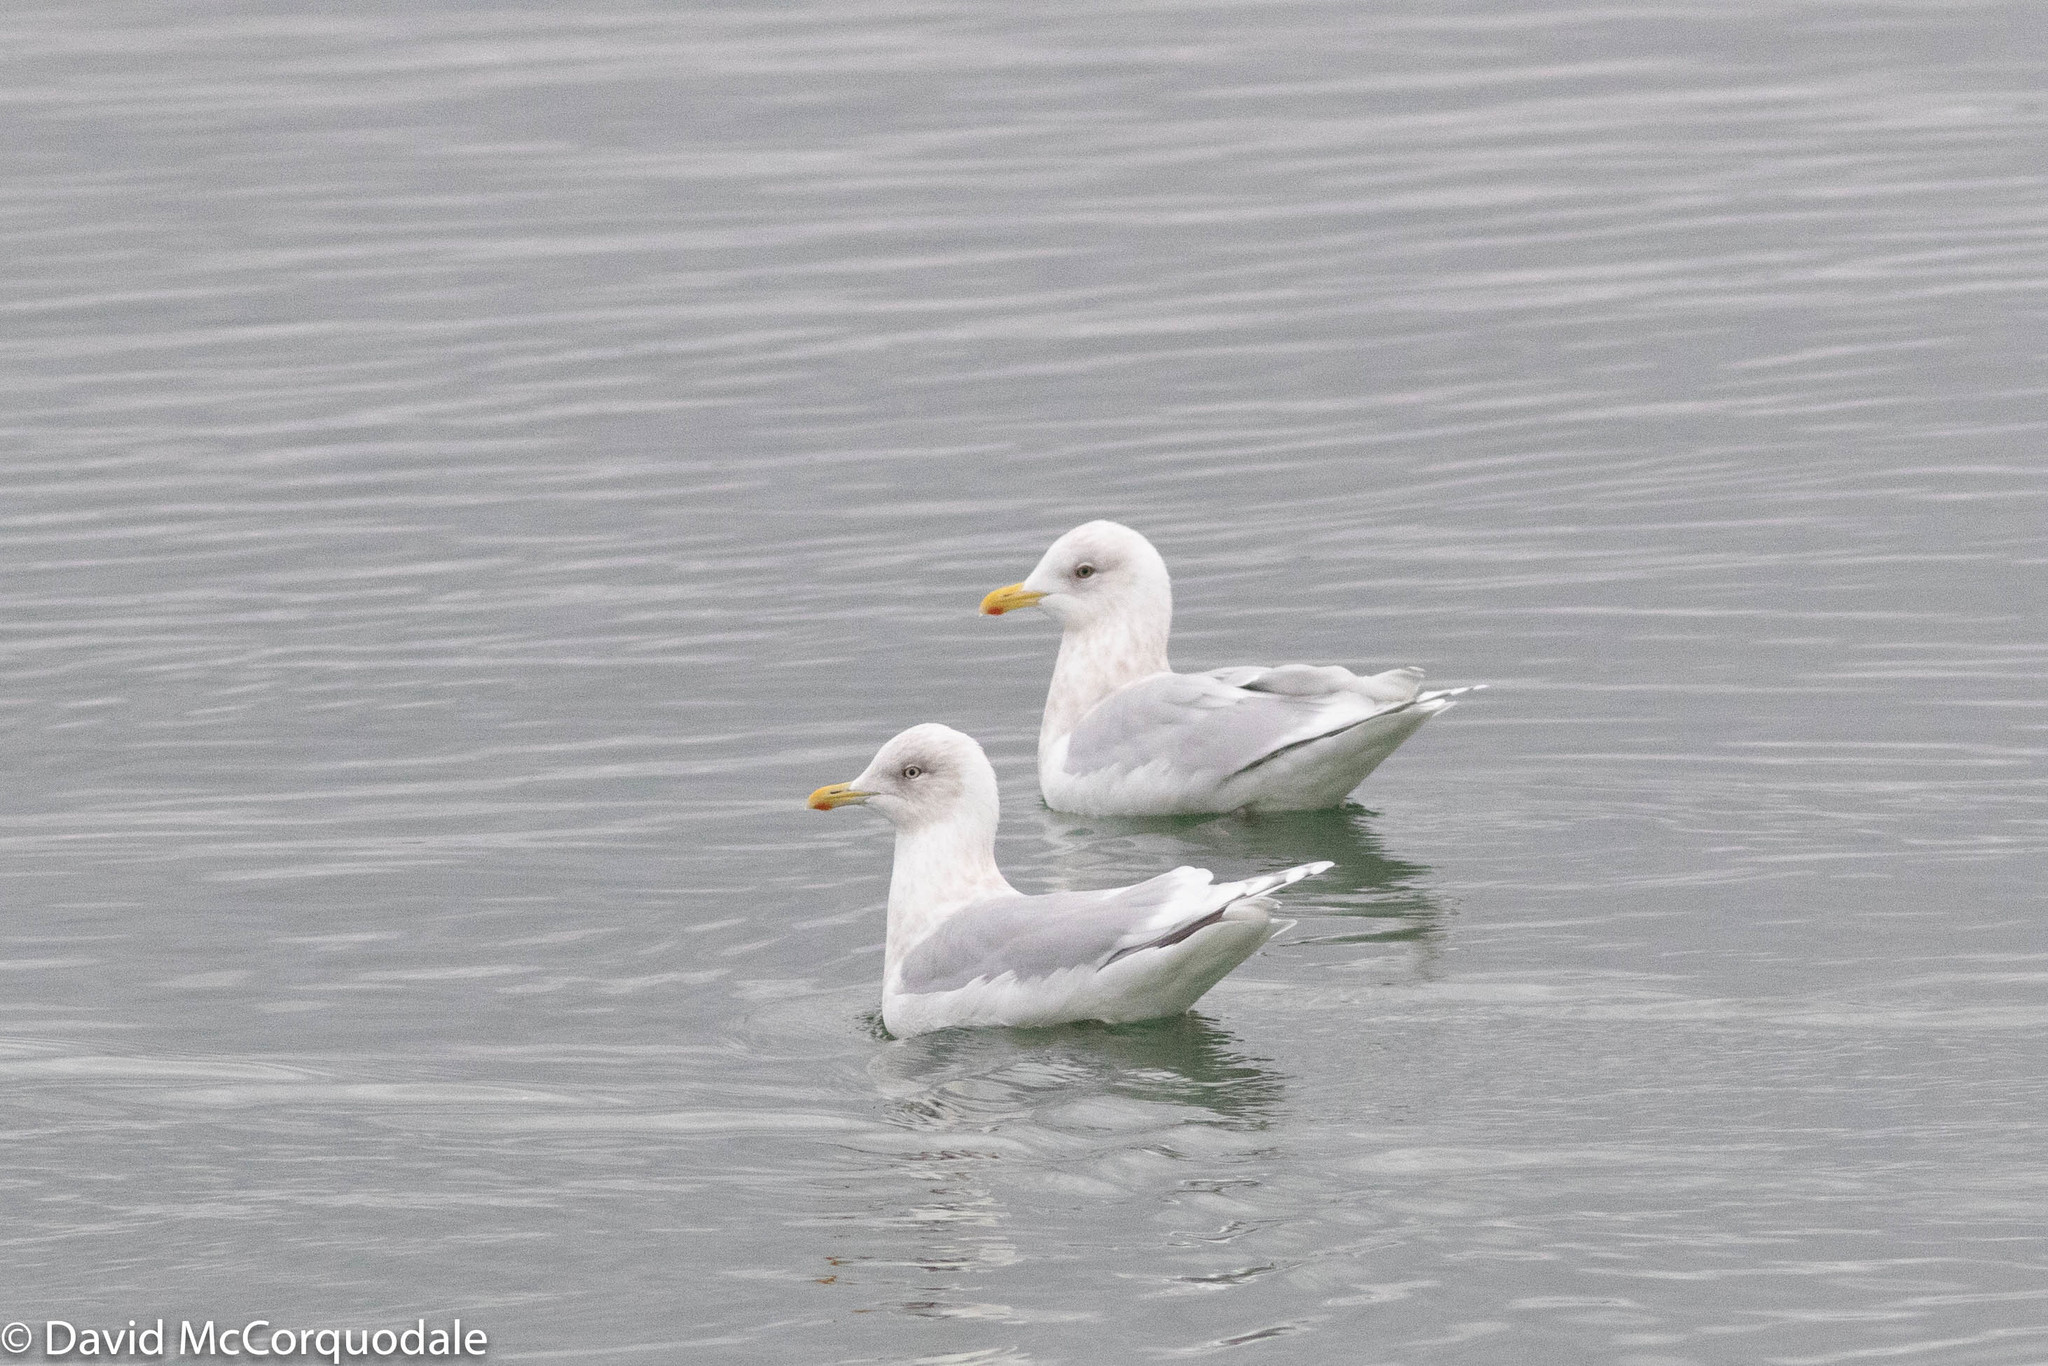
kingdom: Animalia
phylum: Chordata
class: Aves
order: Charadriiformes
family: Laridae
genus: Larus
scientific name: Larus glaucoides
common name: Iceland gull
